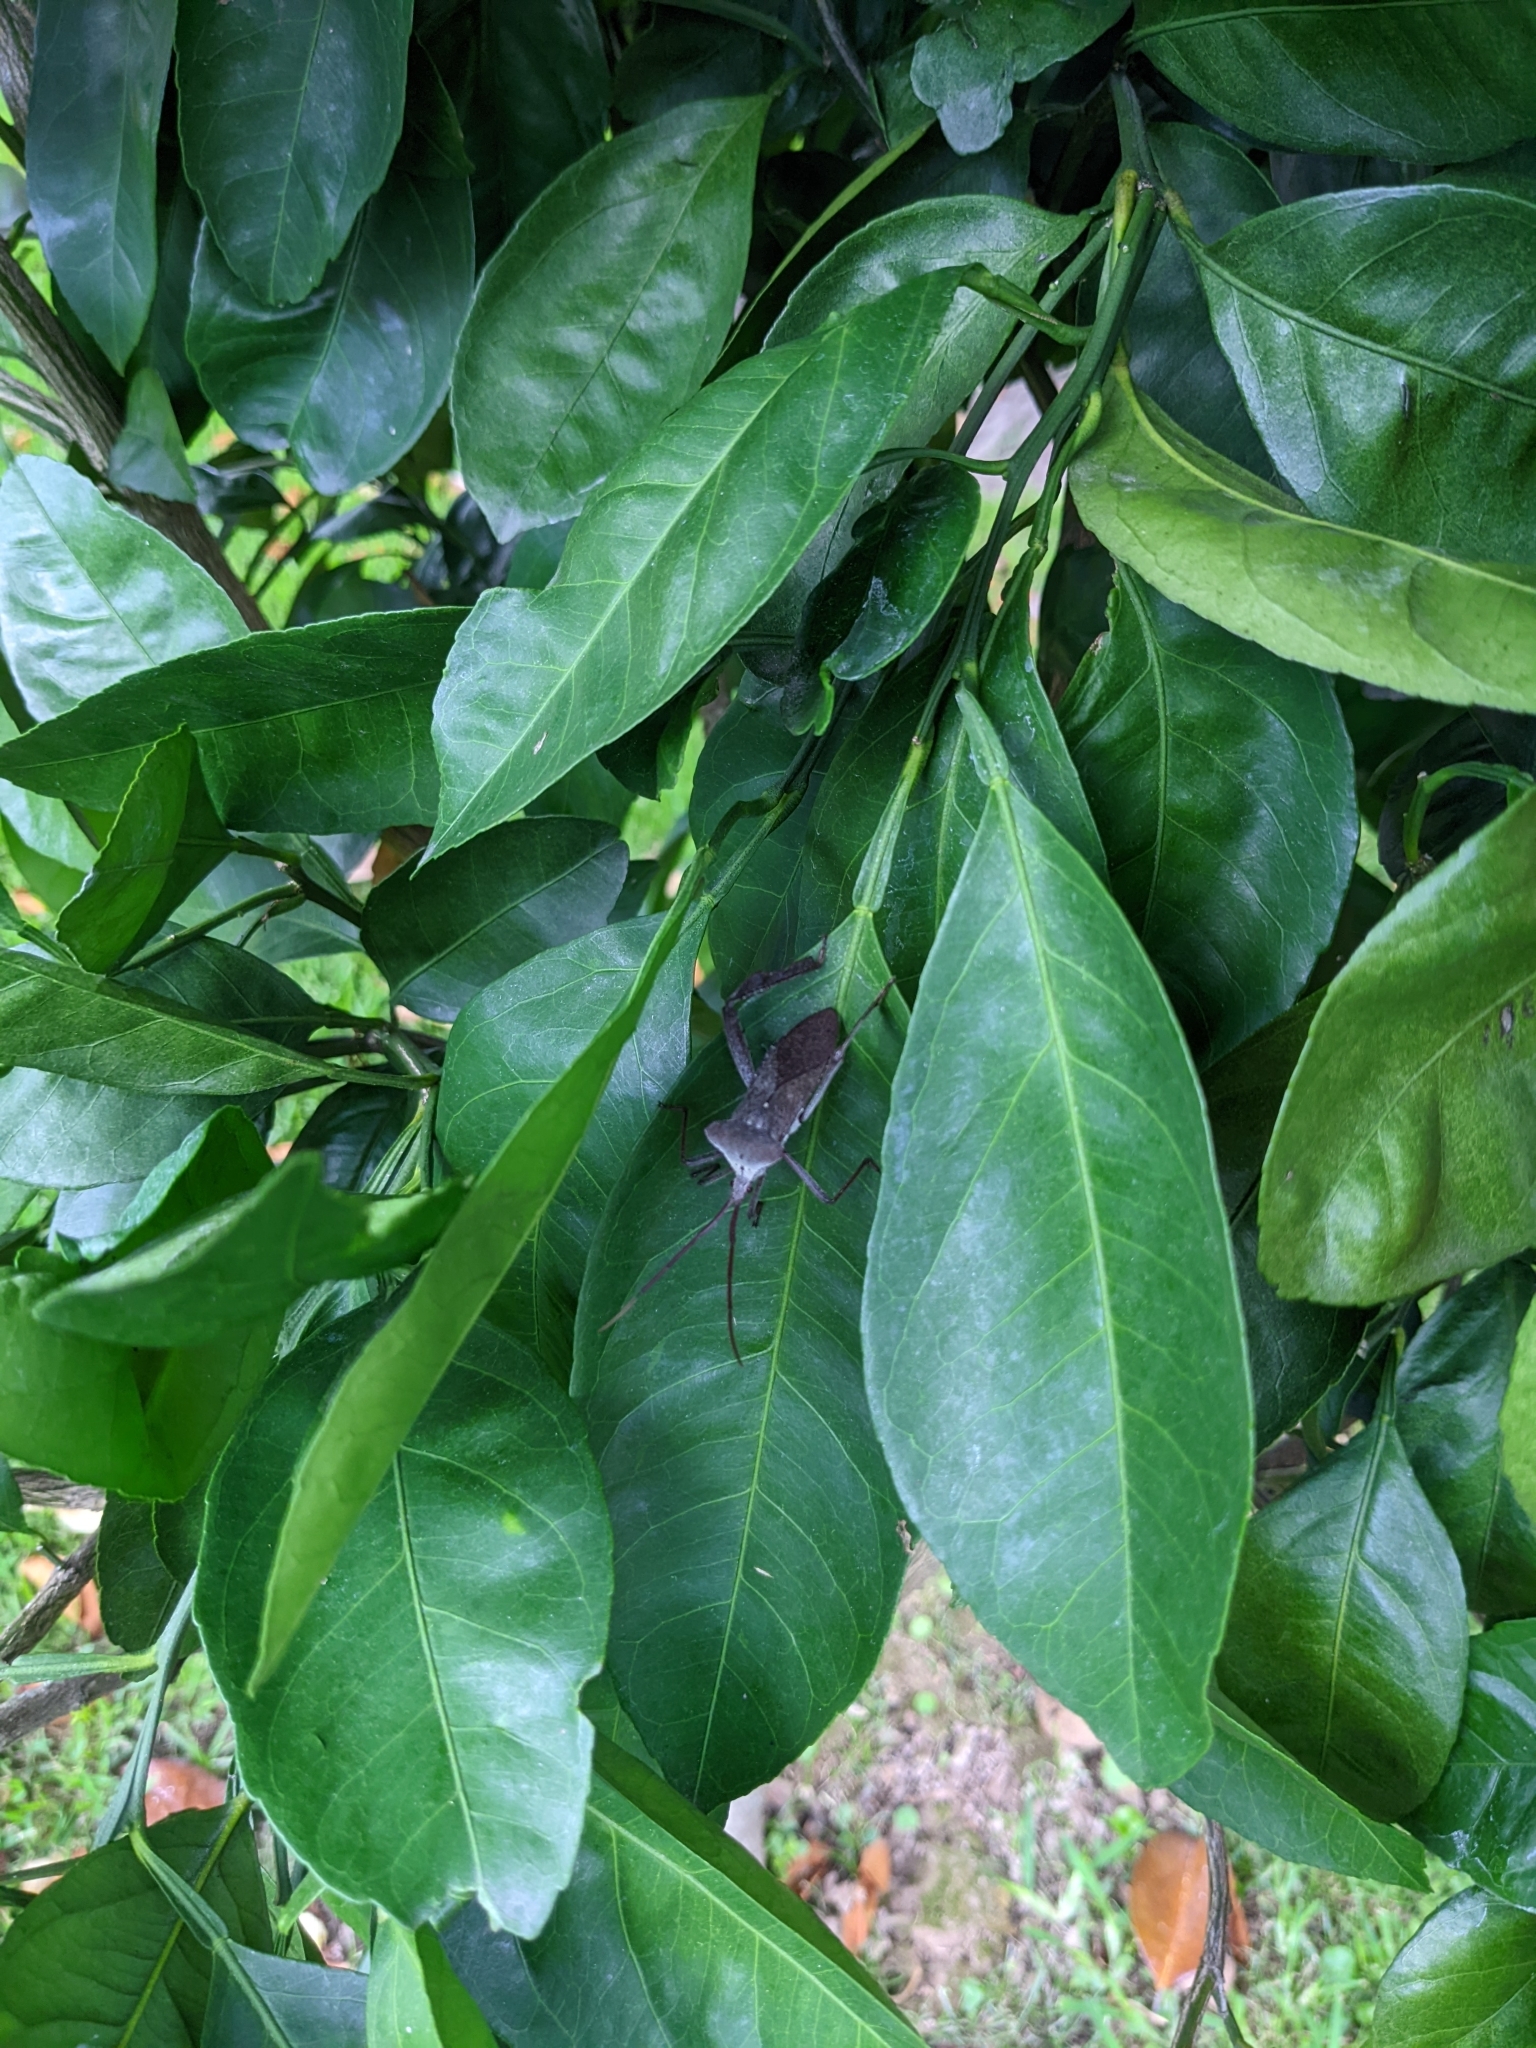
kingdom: Animalia
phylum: Arthropoda
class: Insecta
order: Hemiptera
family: Coreidae
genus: Acanthocephala
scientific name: Acanthocephala declivis
